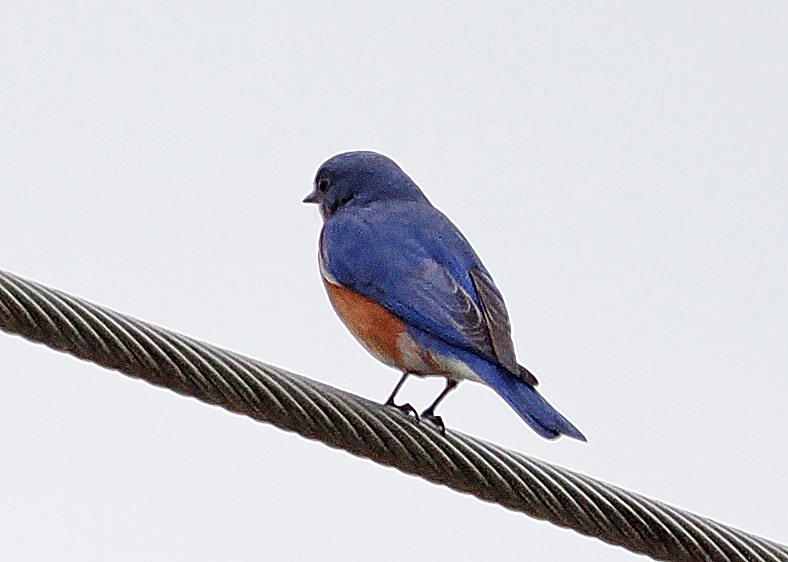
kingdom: Animalia
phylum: Chordata
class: Aves
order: Passeriformes
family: Turdidae
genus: Sialia
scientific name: Sialia sialis
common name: Eastern bluebird
